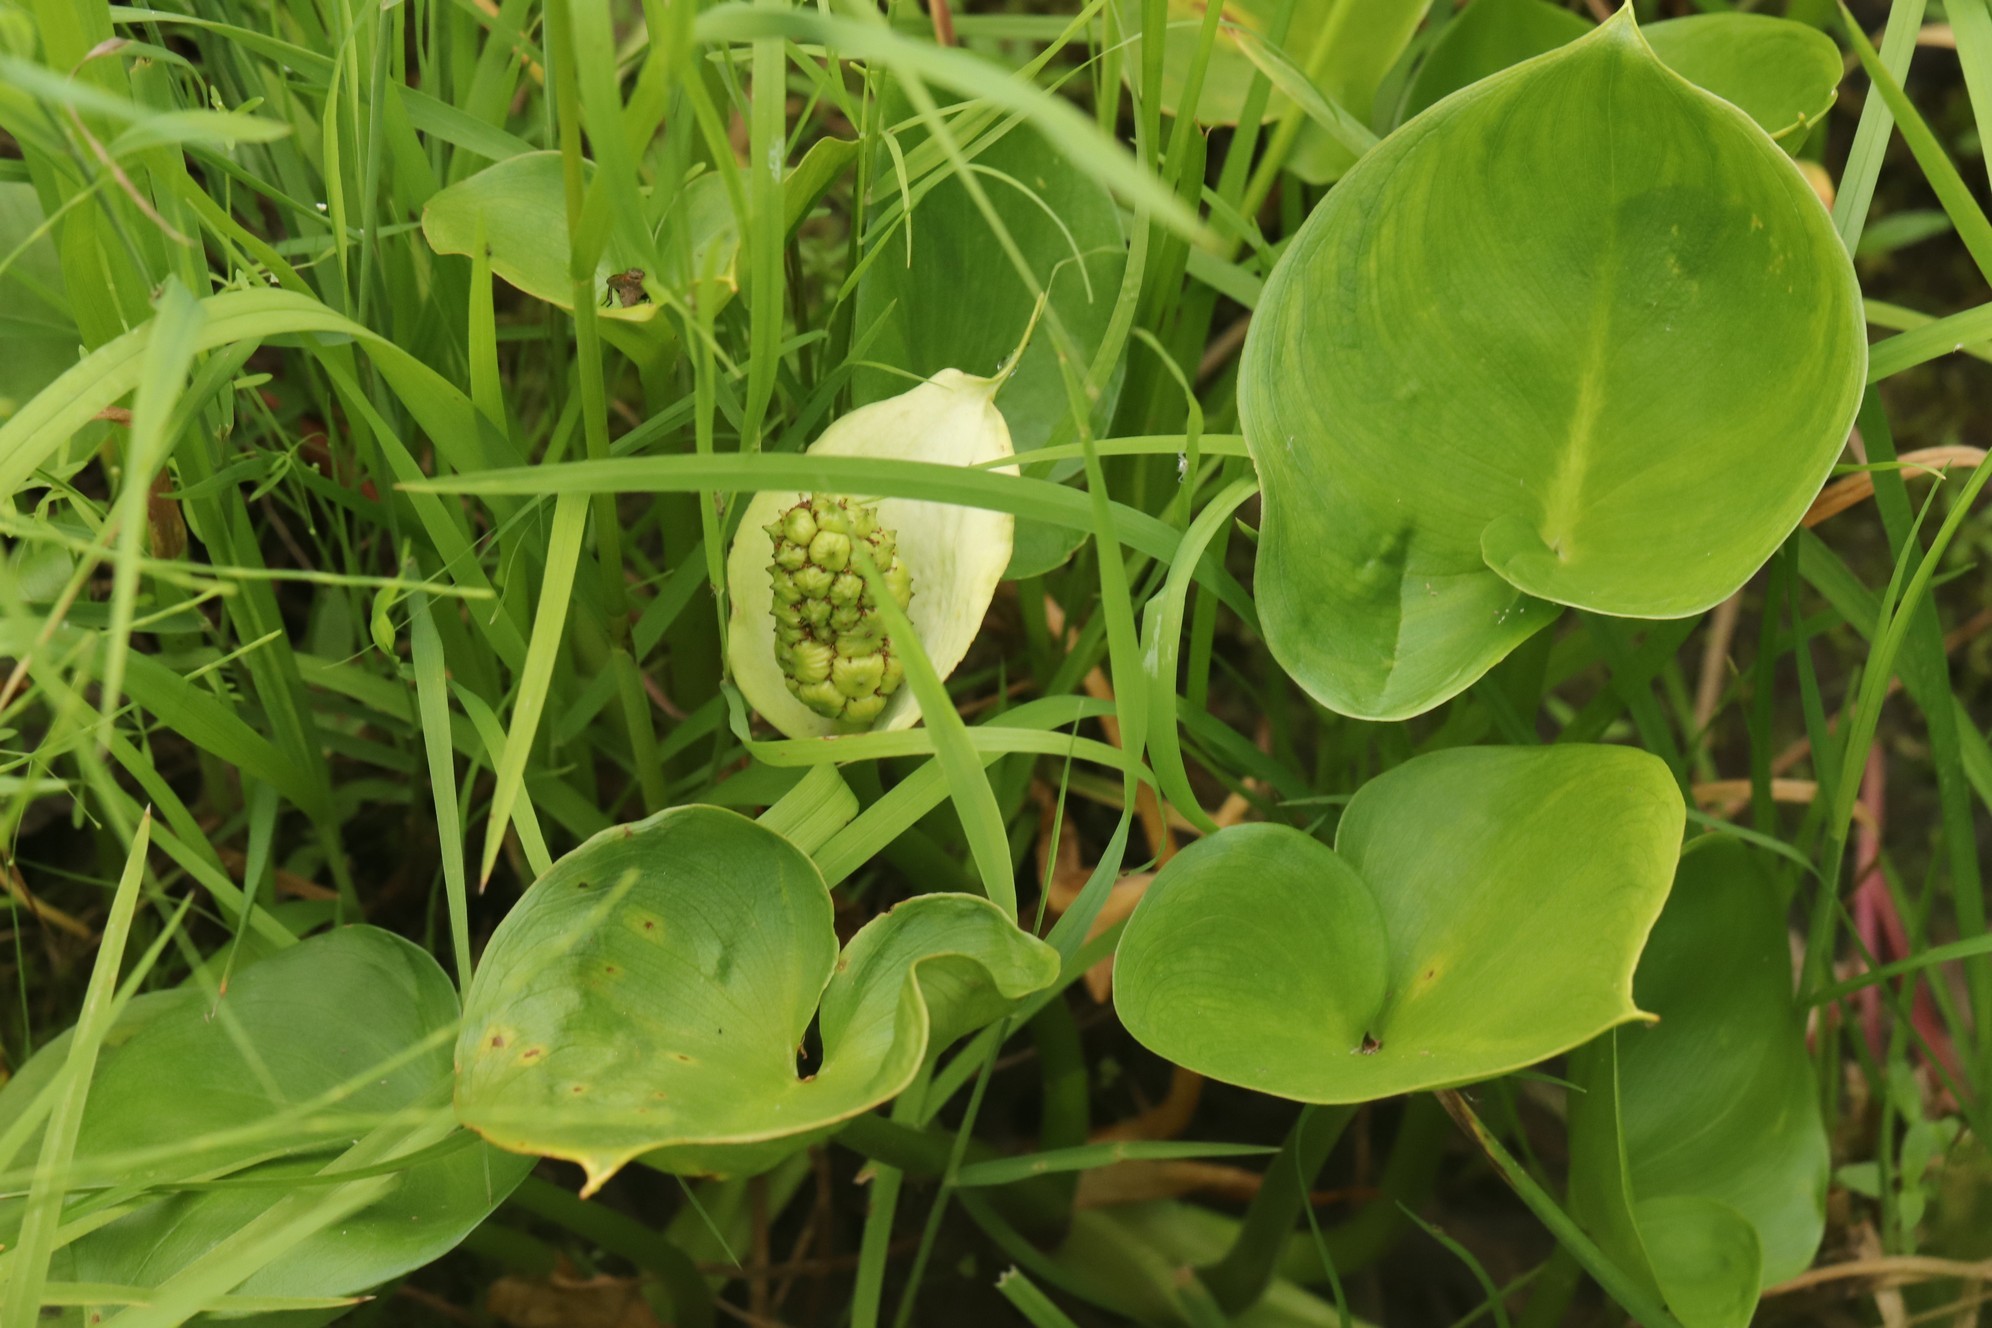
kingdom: Plantae
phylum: Tracheophyta
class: Liliopsida
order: Alismatales
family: Araceae
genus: Calla
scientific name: Calla palustris
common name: Bog arum
